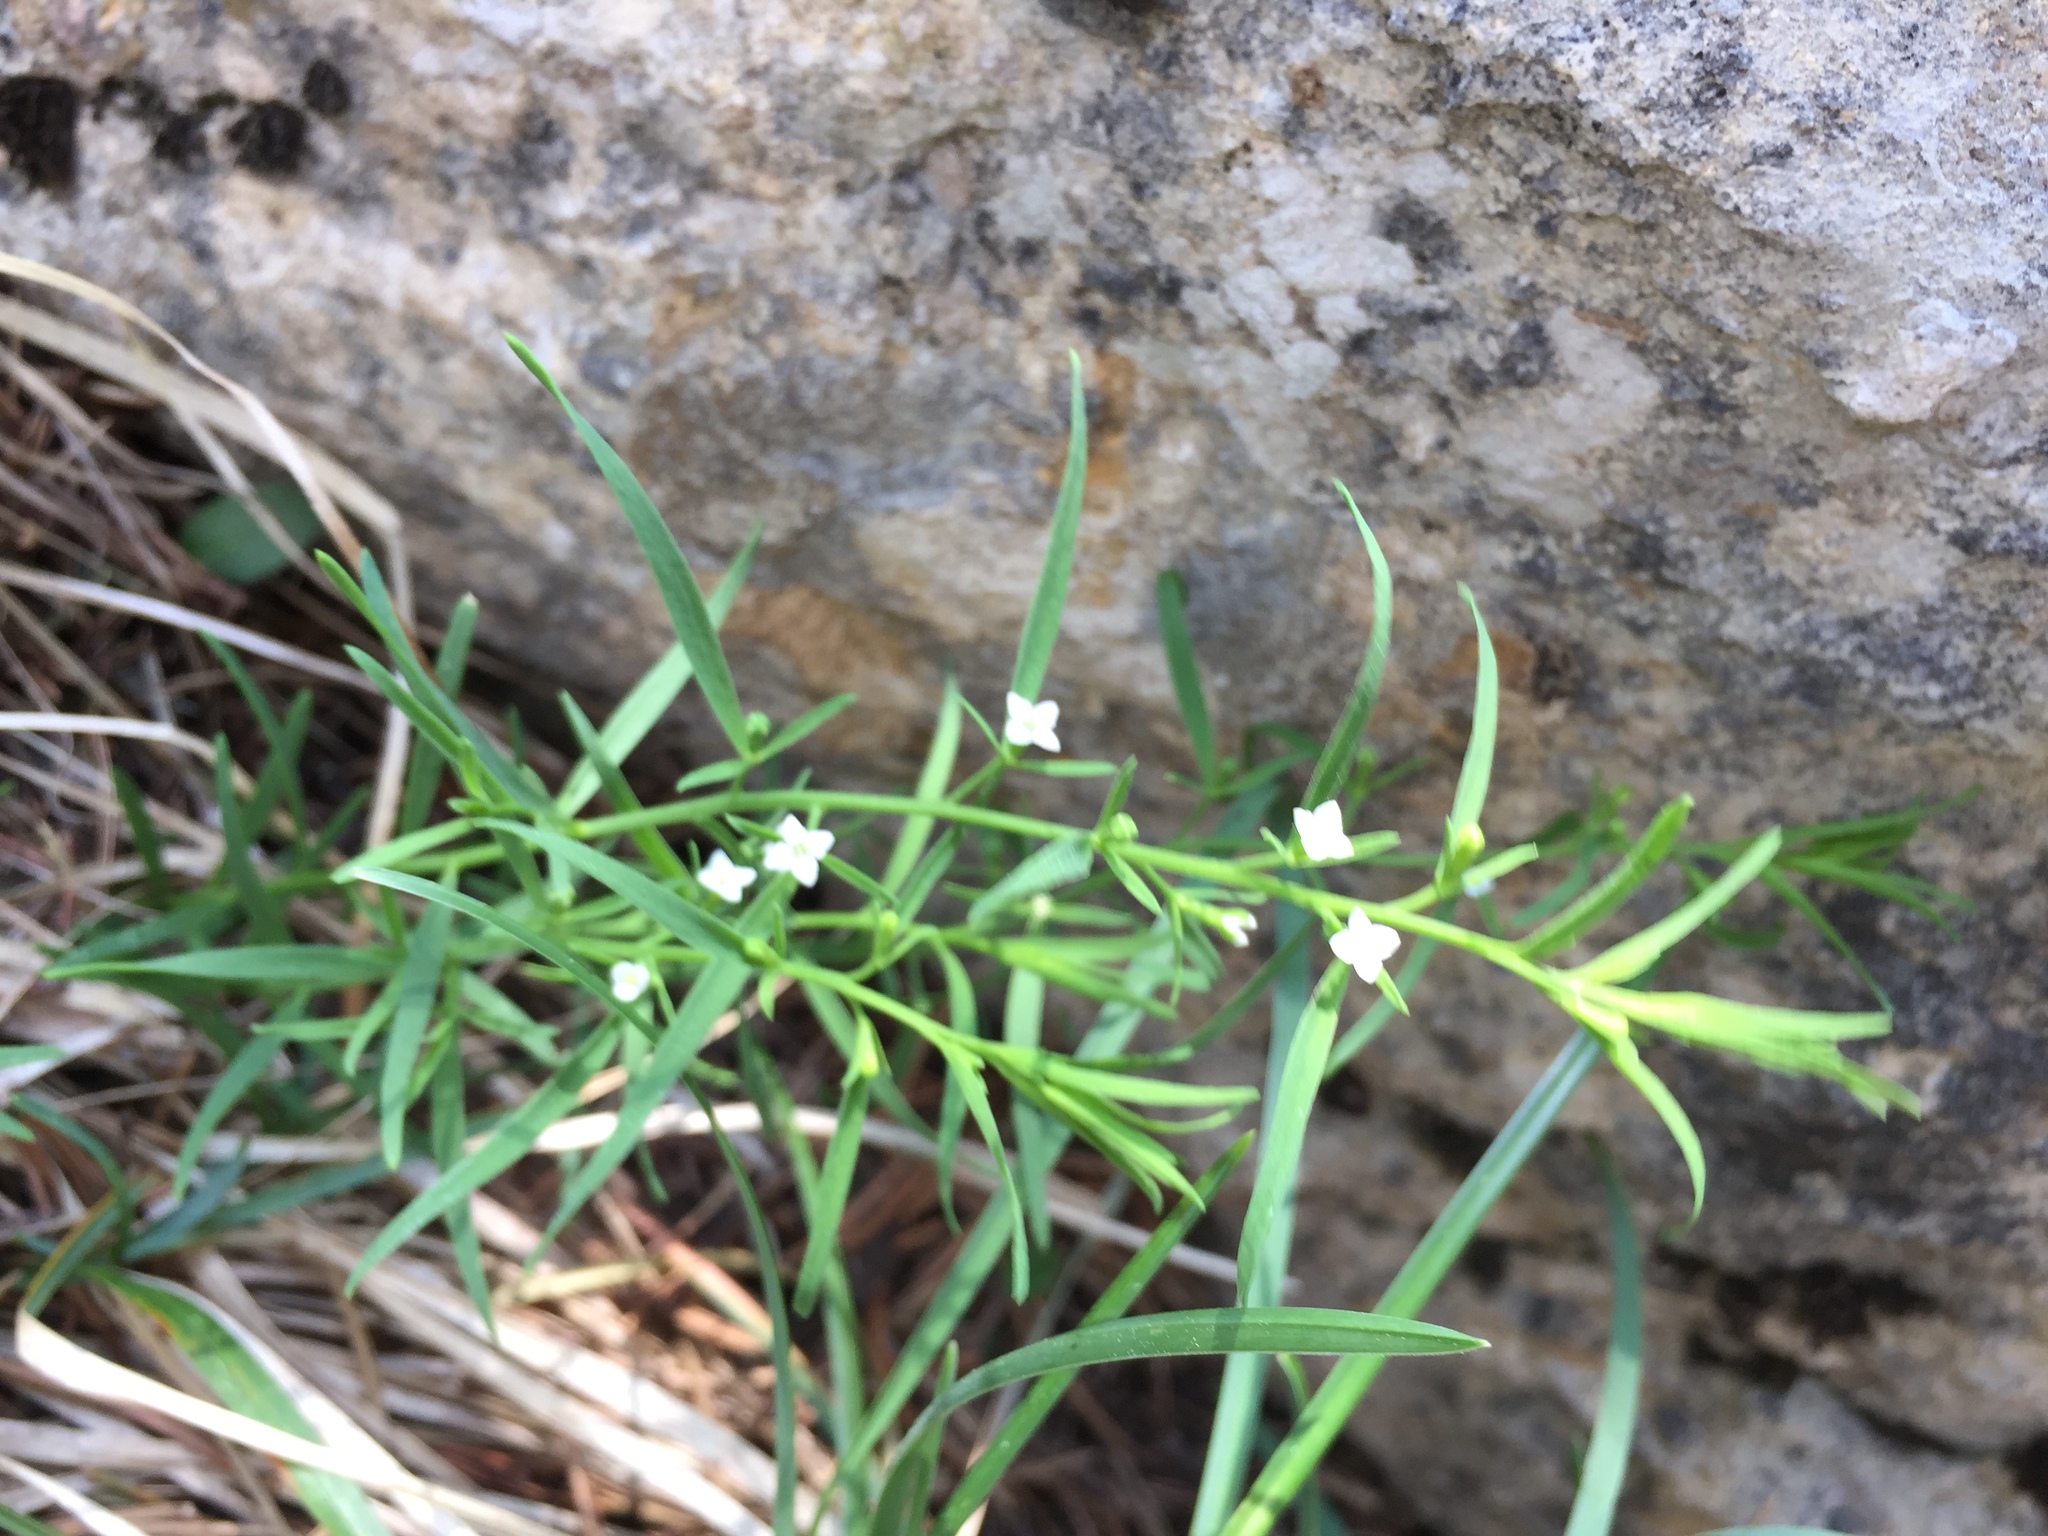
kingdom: Plantae
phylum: Tracheophyta
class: Magnoliopsida
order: Santalales
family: Thesiaceae
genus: Thesium
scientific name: Thesium alpinum
